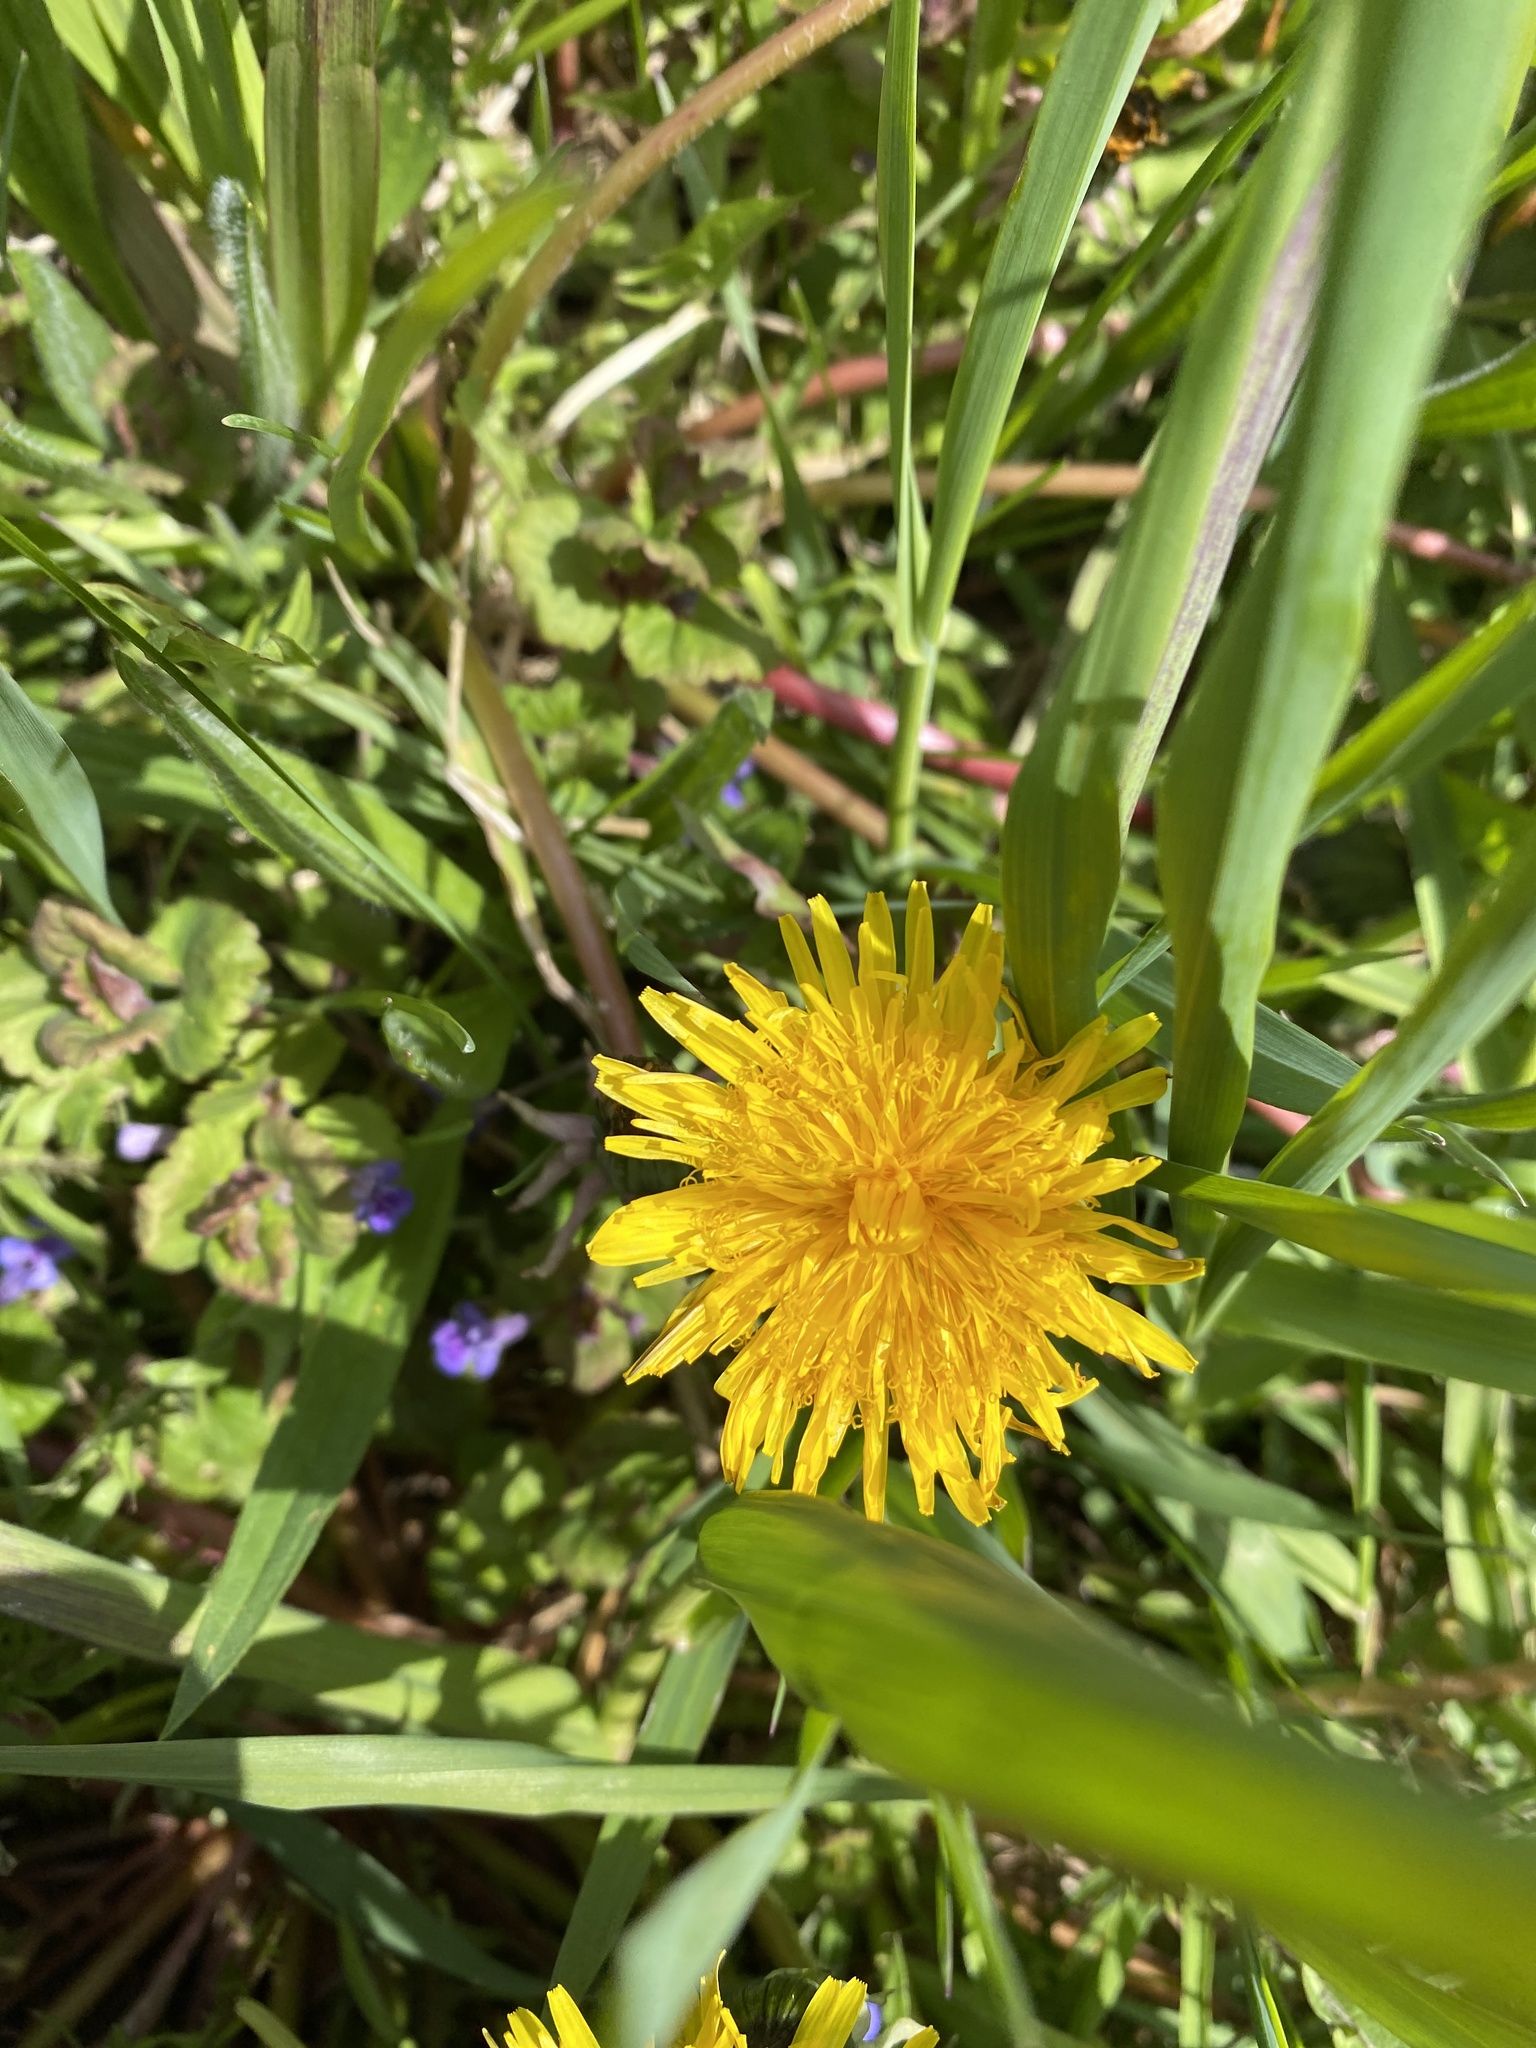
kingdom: Plantae
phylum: Tracheophyta
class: Magnoliopsida
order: Asterales
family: Asteraceae
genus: Taraxacum
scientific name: Taraxacum officinale
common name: Common dandelion
